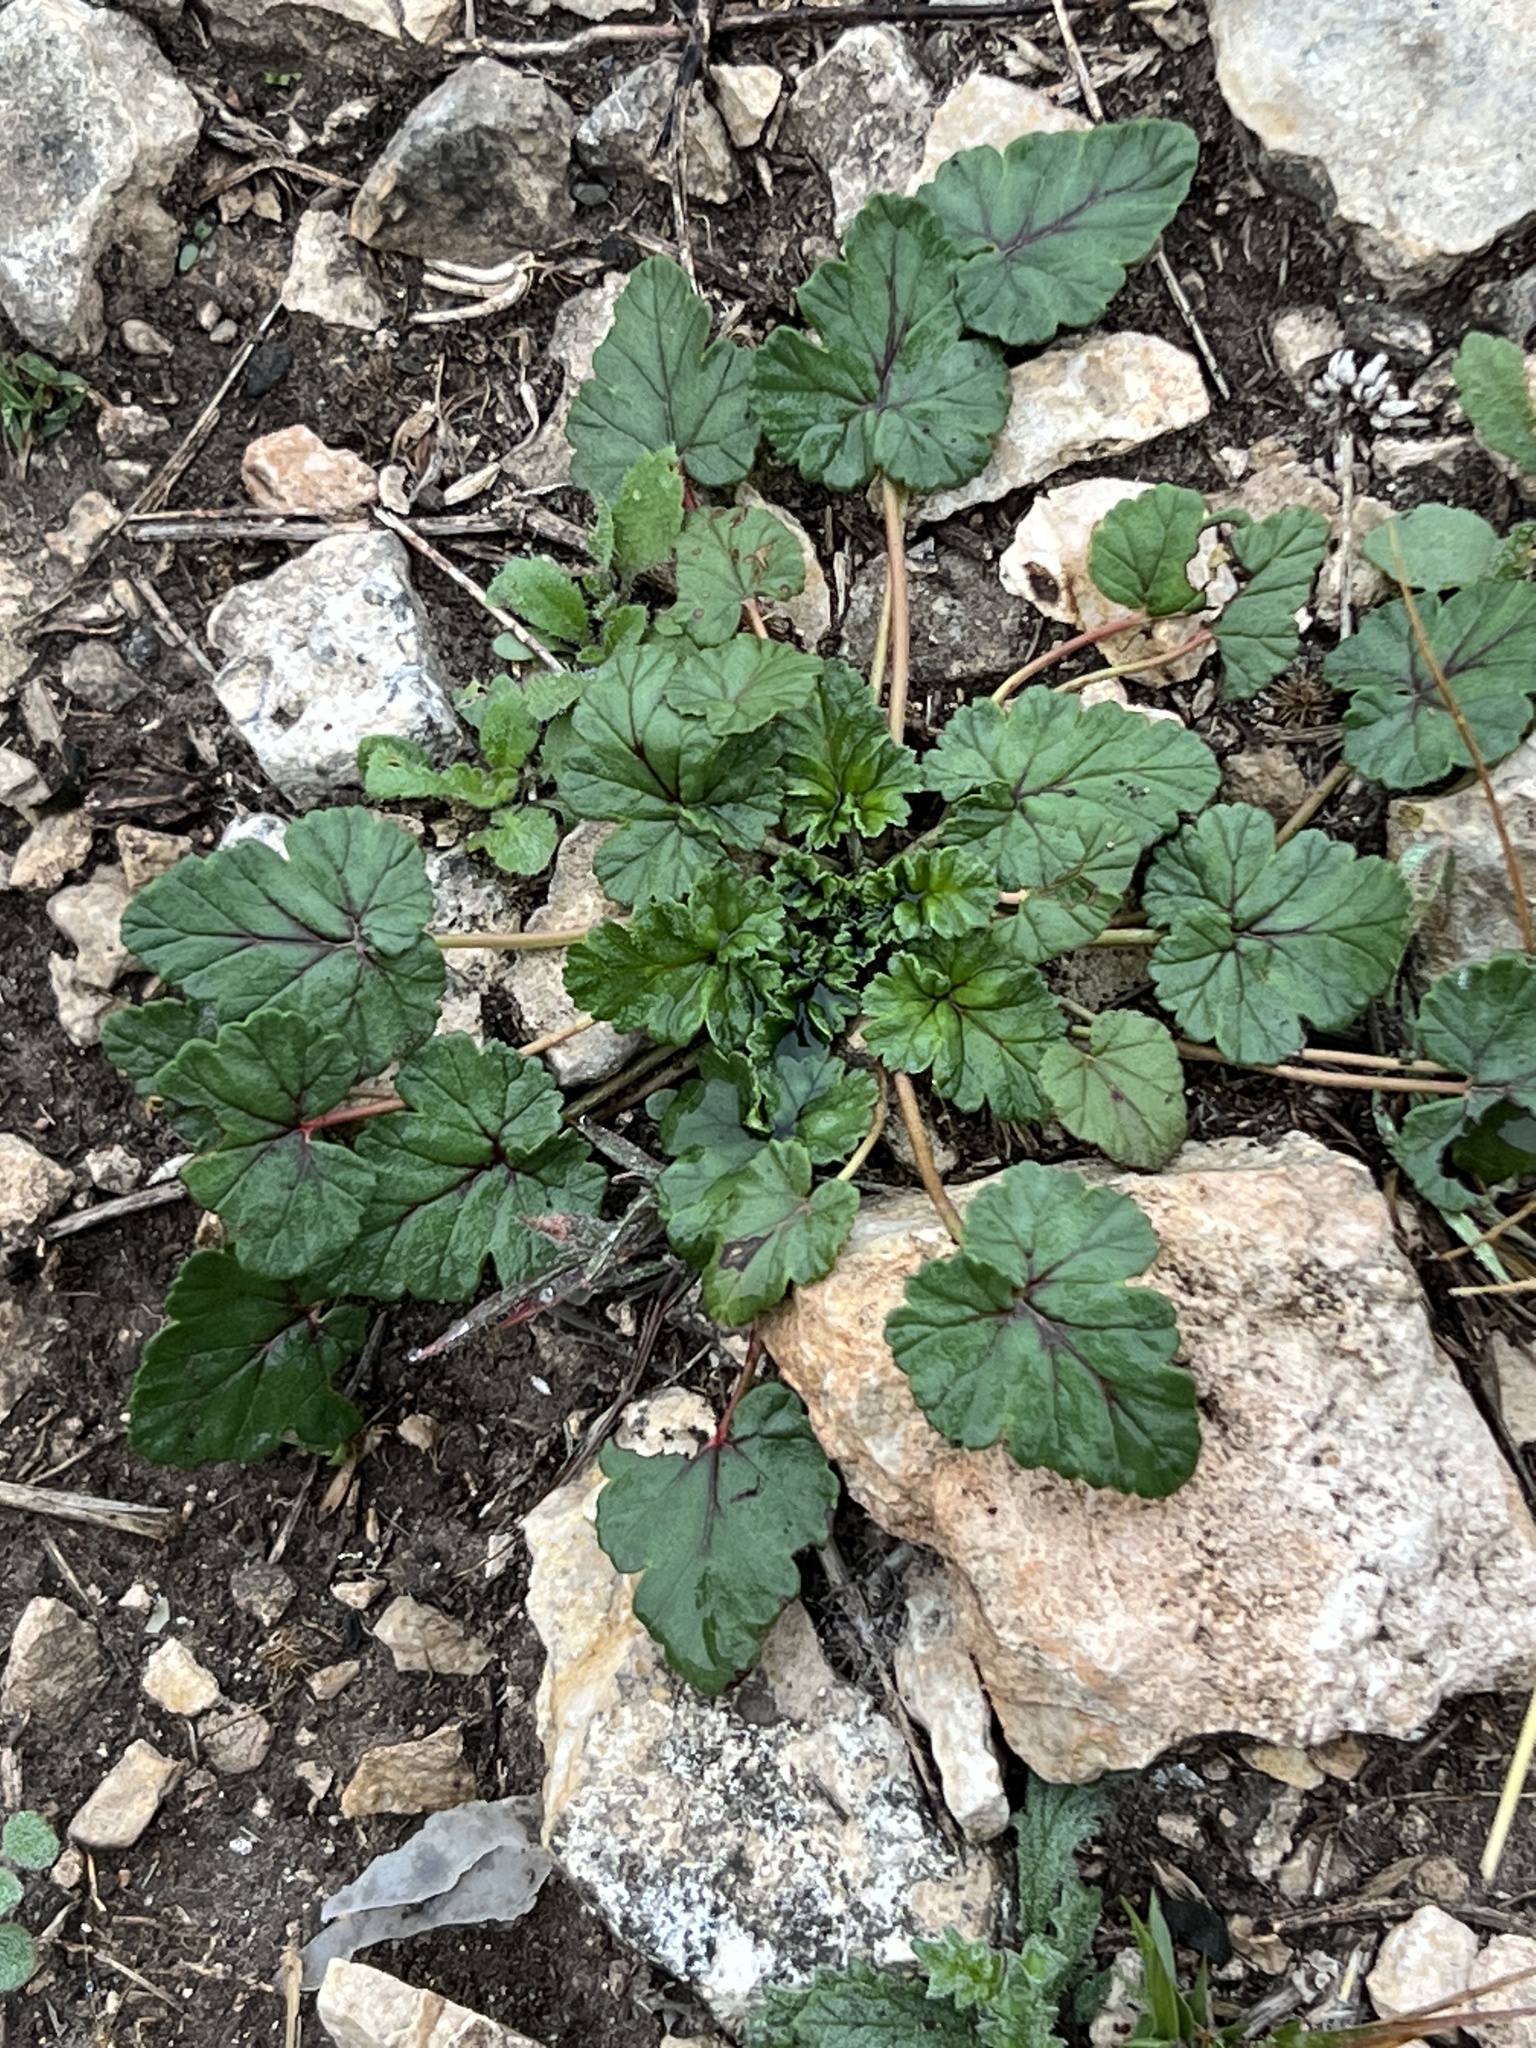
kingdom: Plantae
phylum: Tracheophyta
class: Magnoliopsida
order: Geraniales
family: Geraniaceae
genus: Erodium
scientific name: Erodium texanum
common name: Texas stork's-bill
